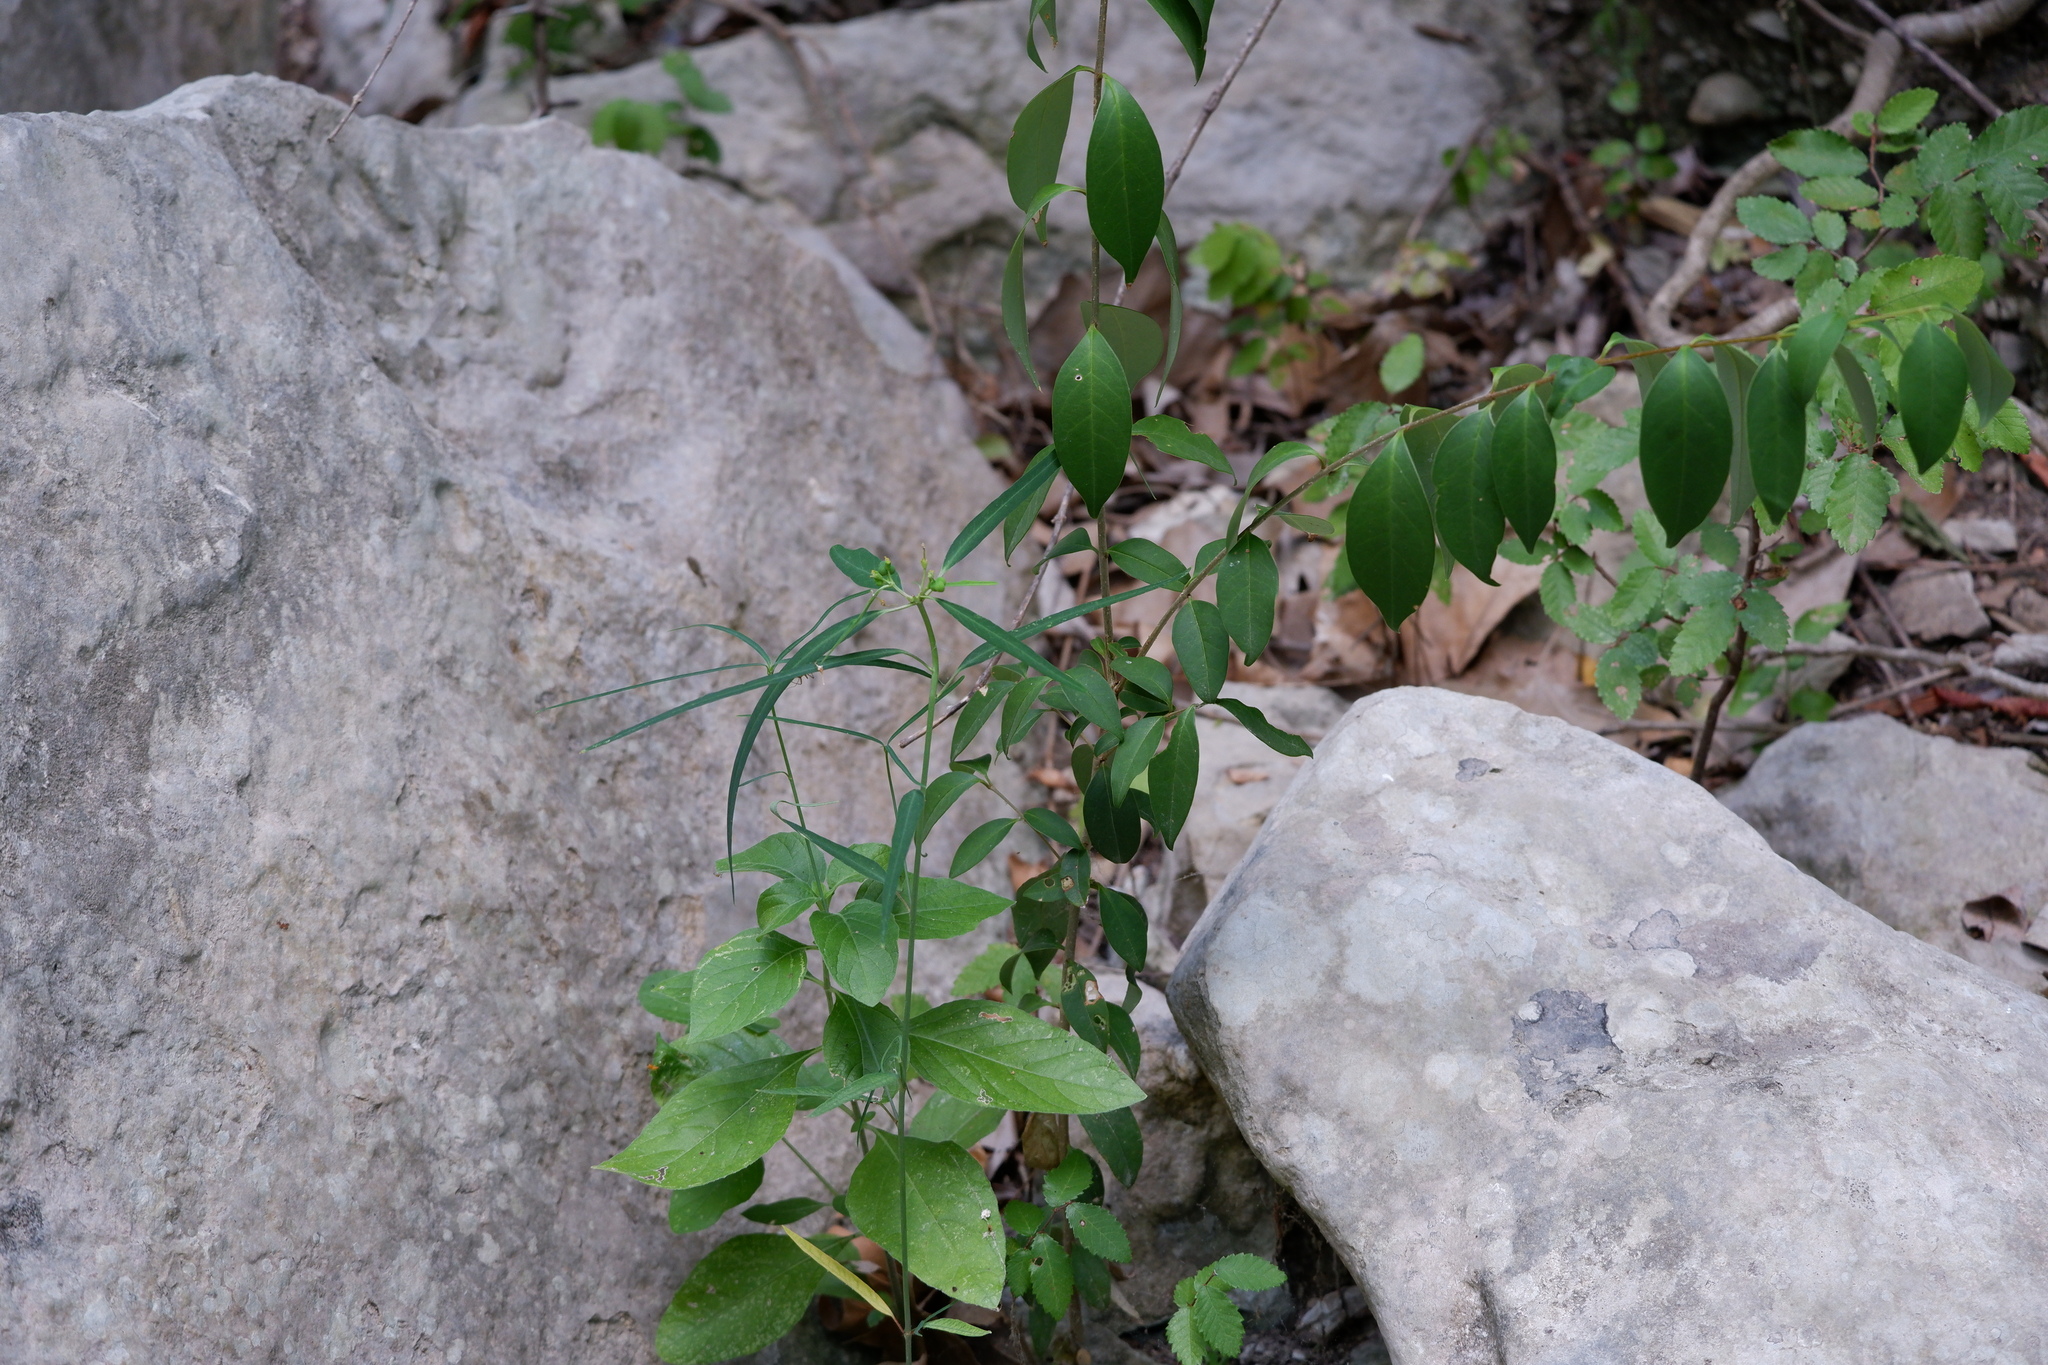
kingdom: Plantae
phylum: Tracheophyta
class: Magnoliopsida
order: Malpighiales
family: Euphorbiaceae
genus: Euphorbia
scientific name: Euphorbia heterophylla
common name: Mexican fireplant
